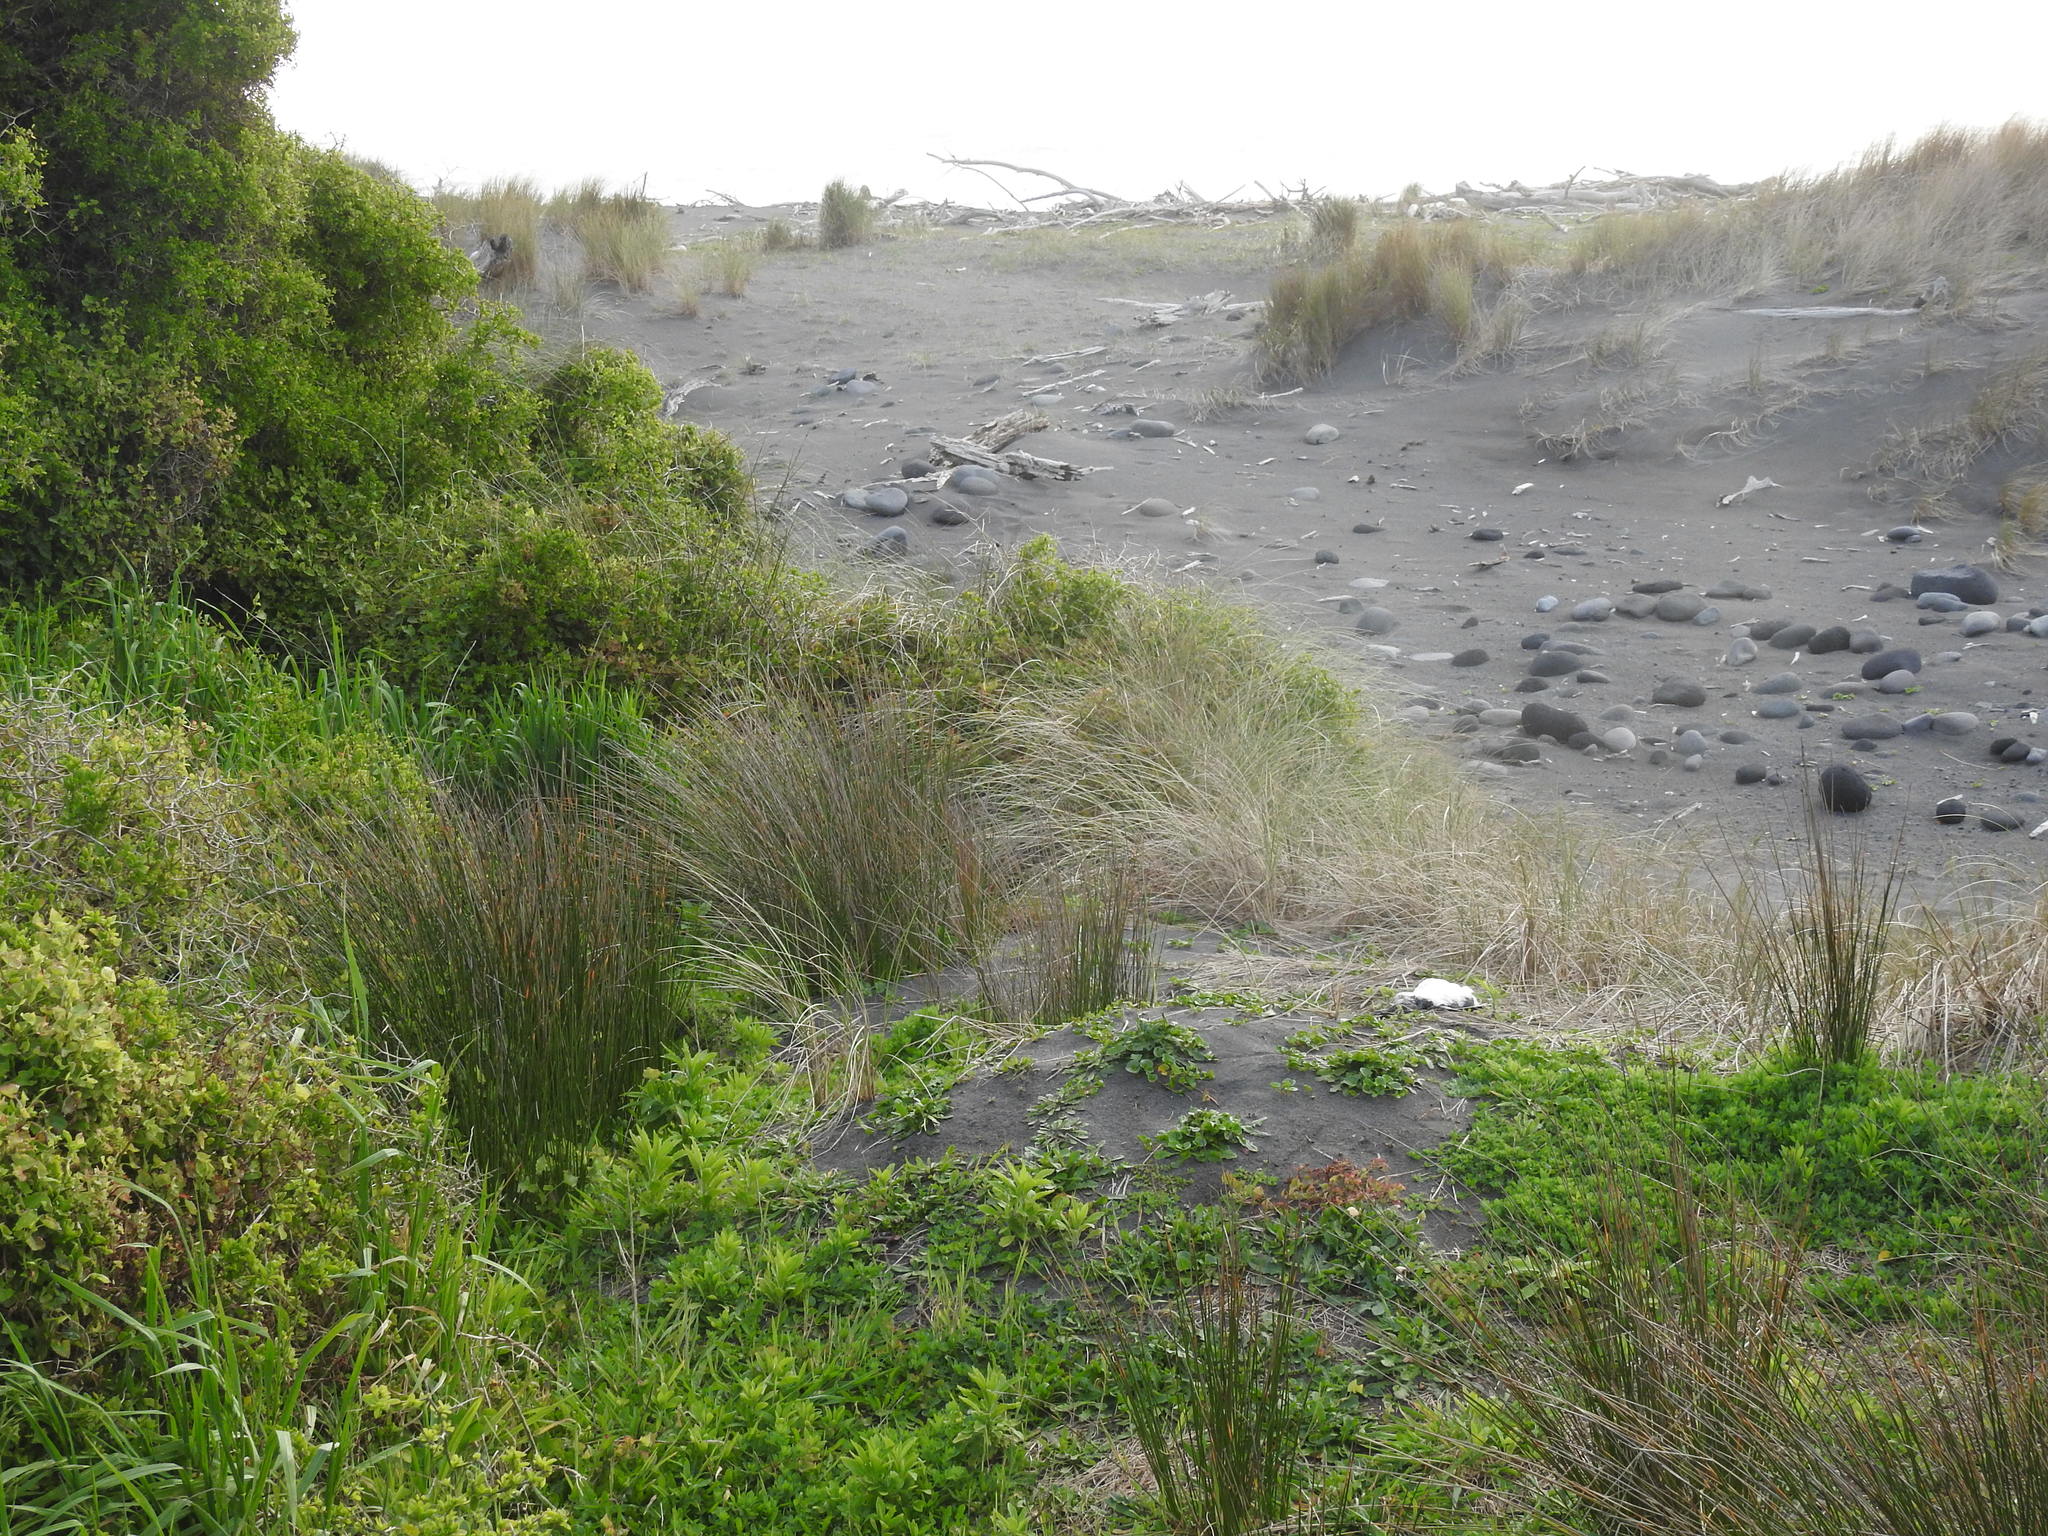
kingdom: Animalia
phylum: Chordata
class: Aves
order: Sphenisciformes
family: Spheniscidae
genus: Eudyptula
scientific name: Eudyptula minor
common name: Little penguin
